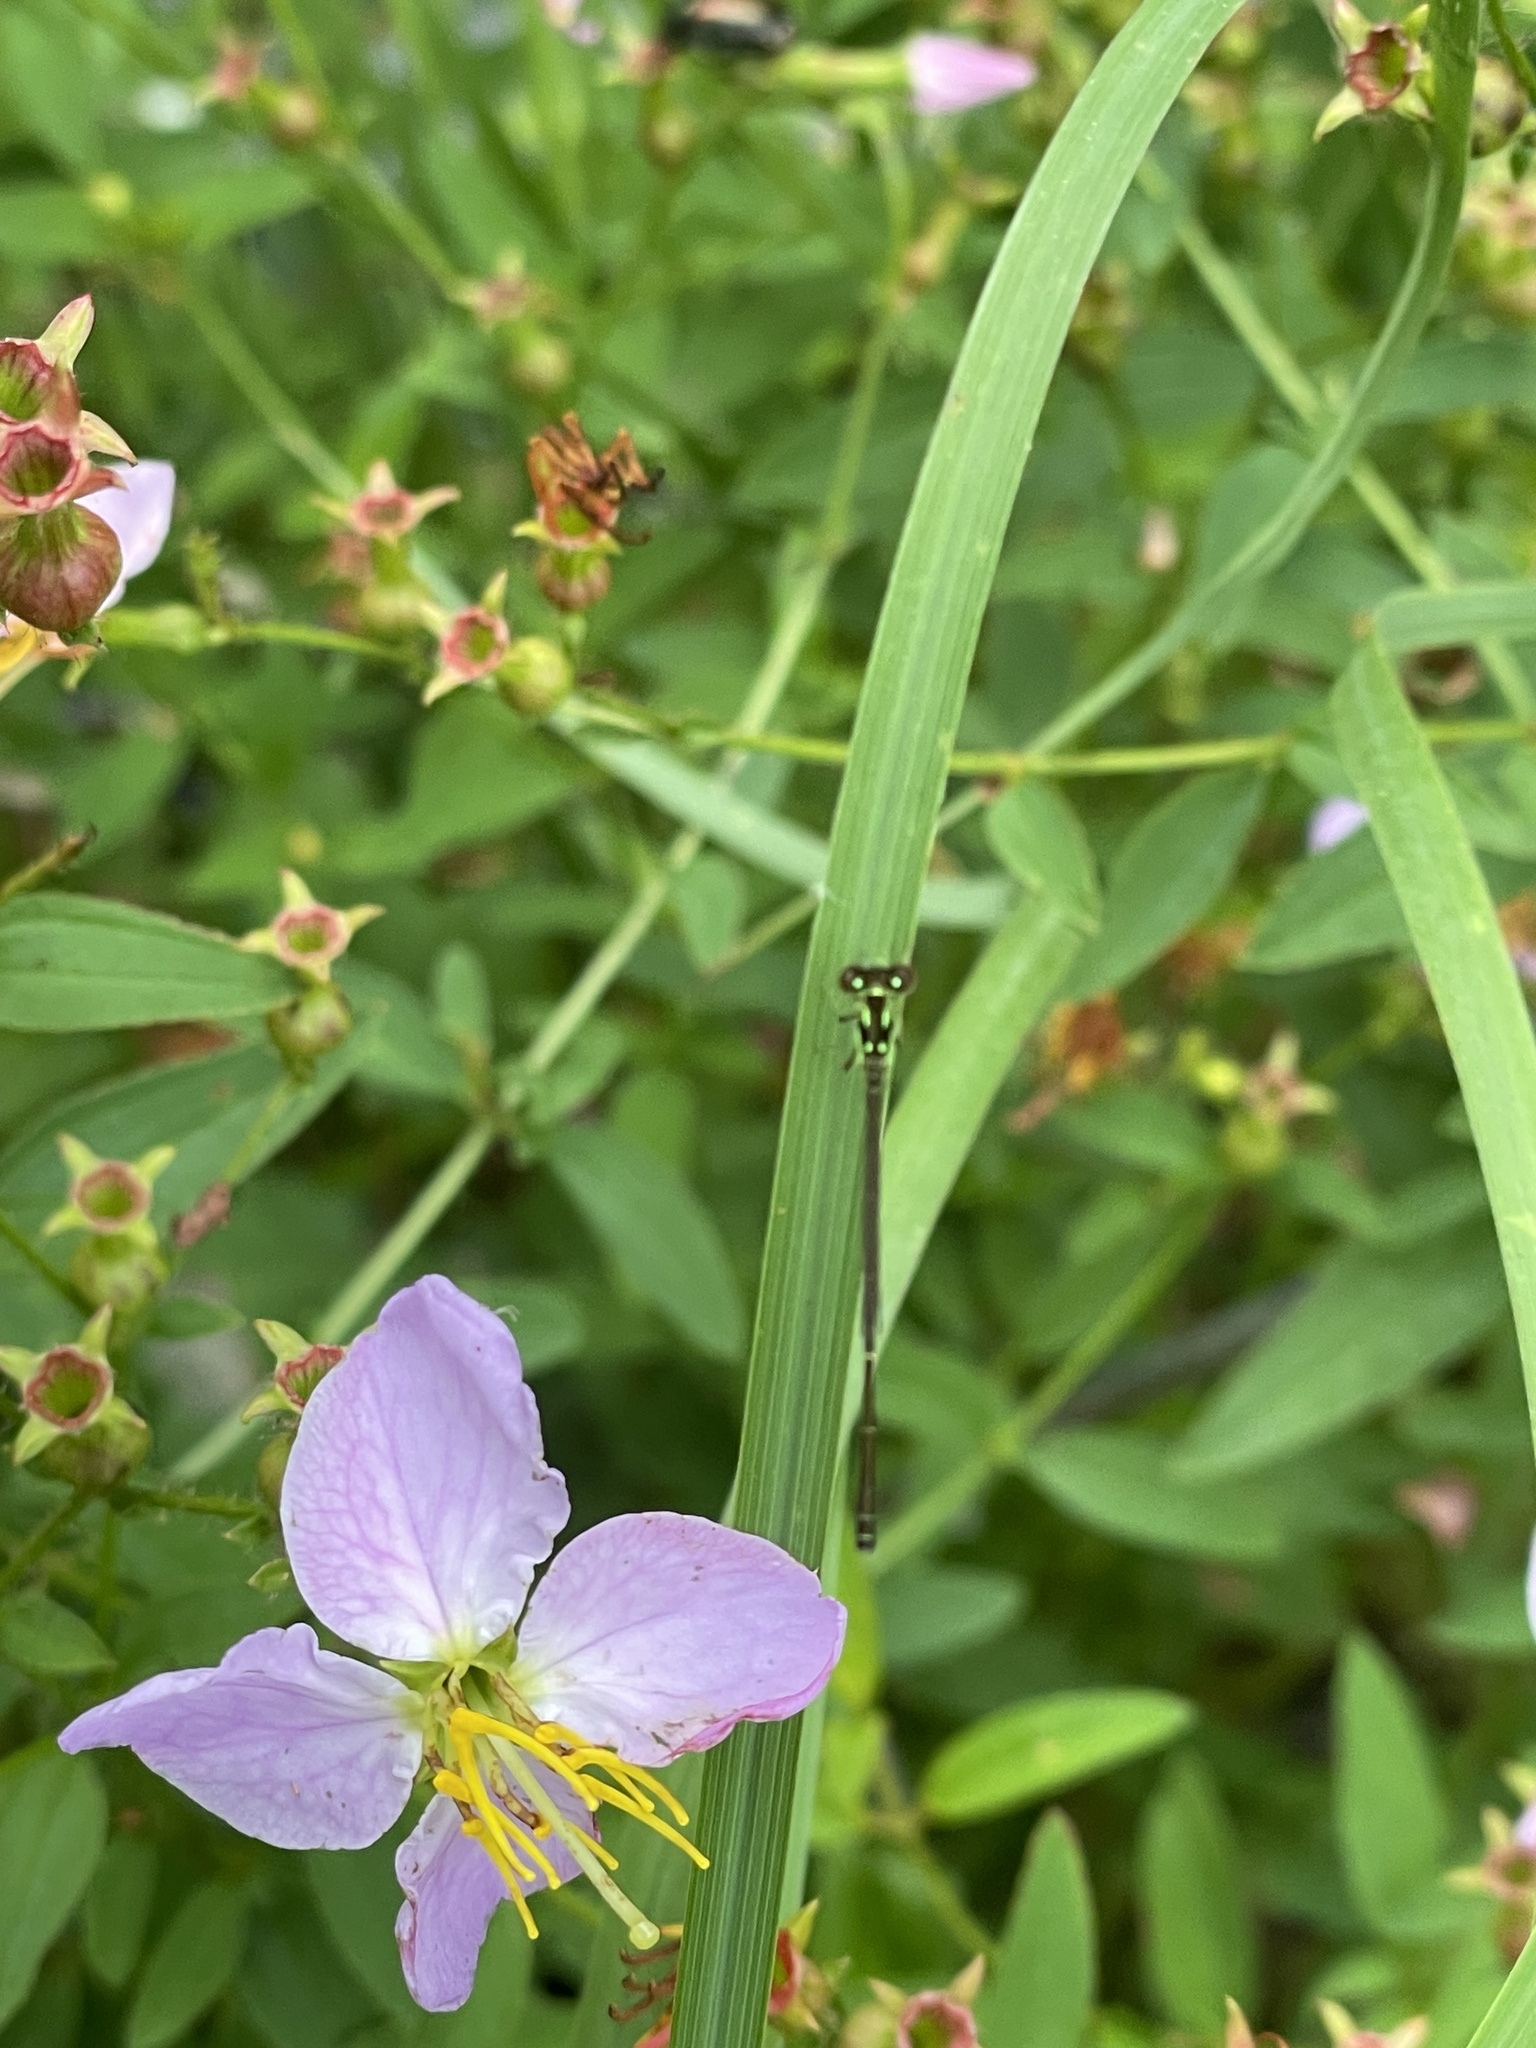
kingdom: Animalia
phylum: Arthropoda
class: Insecta
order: Odonata
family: Coenagrionidae
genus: Ischnura
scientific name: Ischnura posita
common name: Fragile forktail
